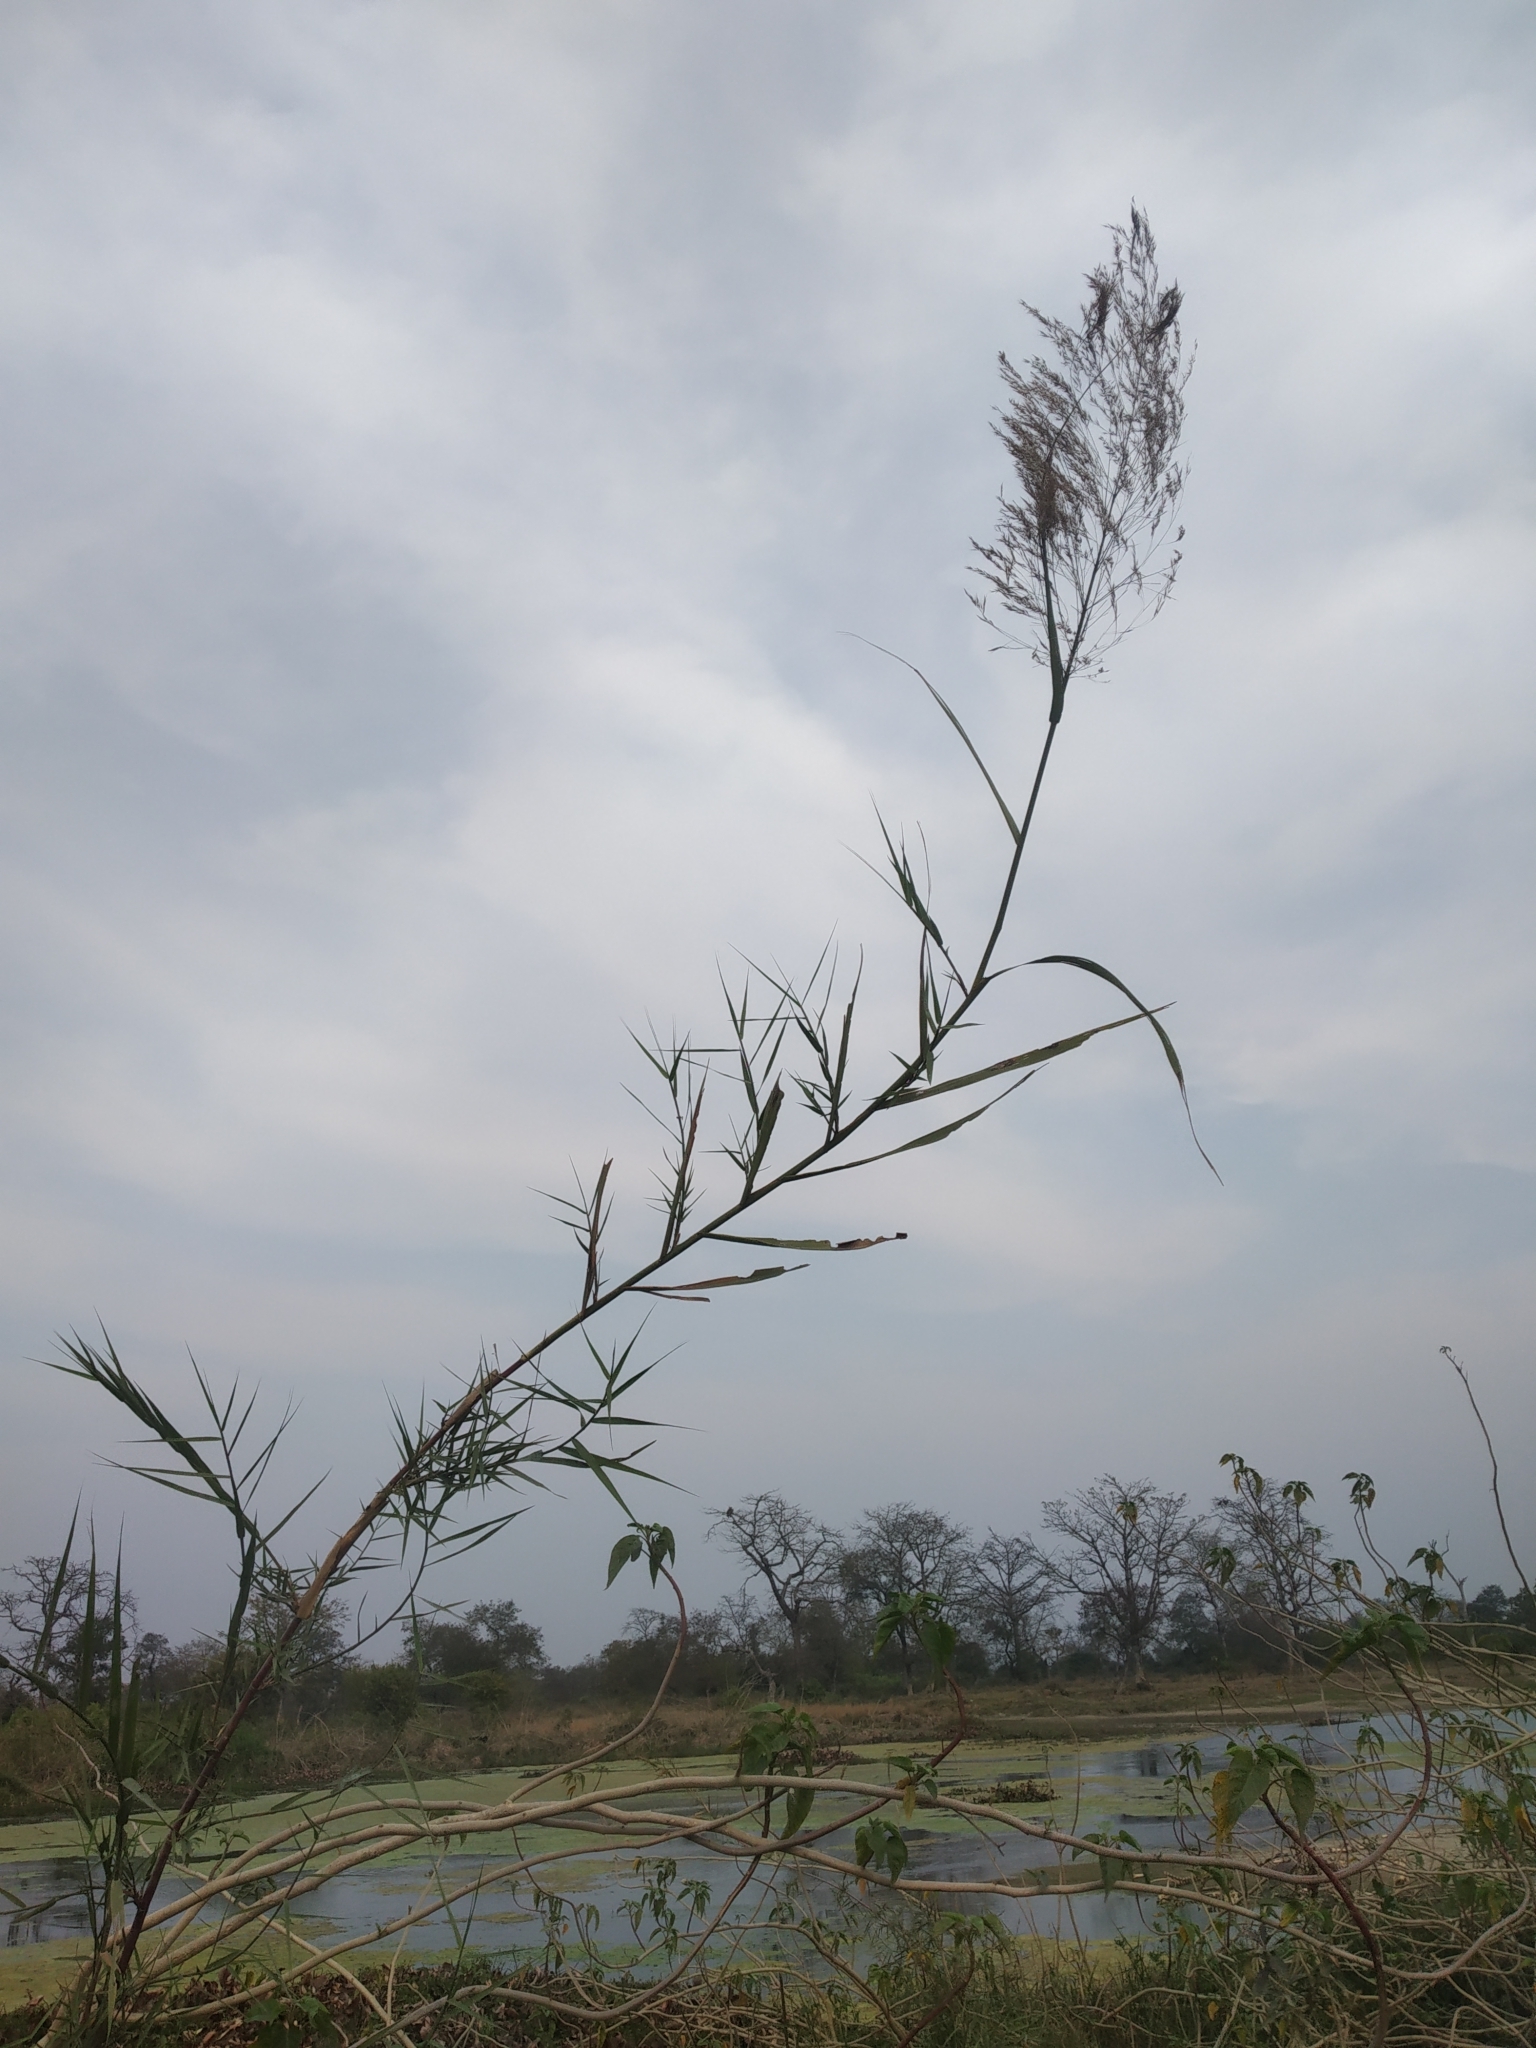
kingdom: Plantae
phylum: Tracheophyta
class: Liliopsida
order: Poales
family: Poaceae
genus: Phragmites
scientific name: Phragmites australis
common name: Common reed
